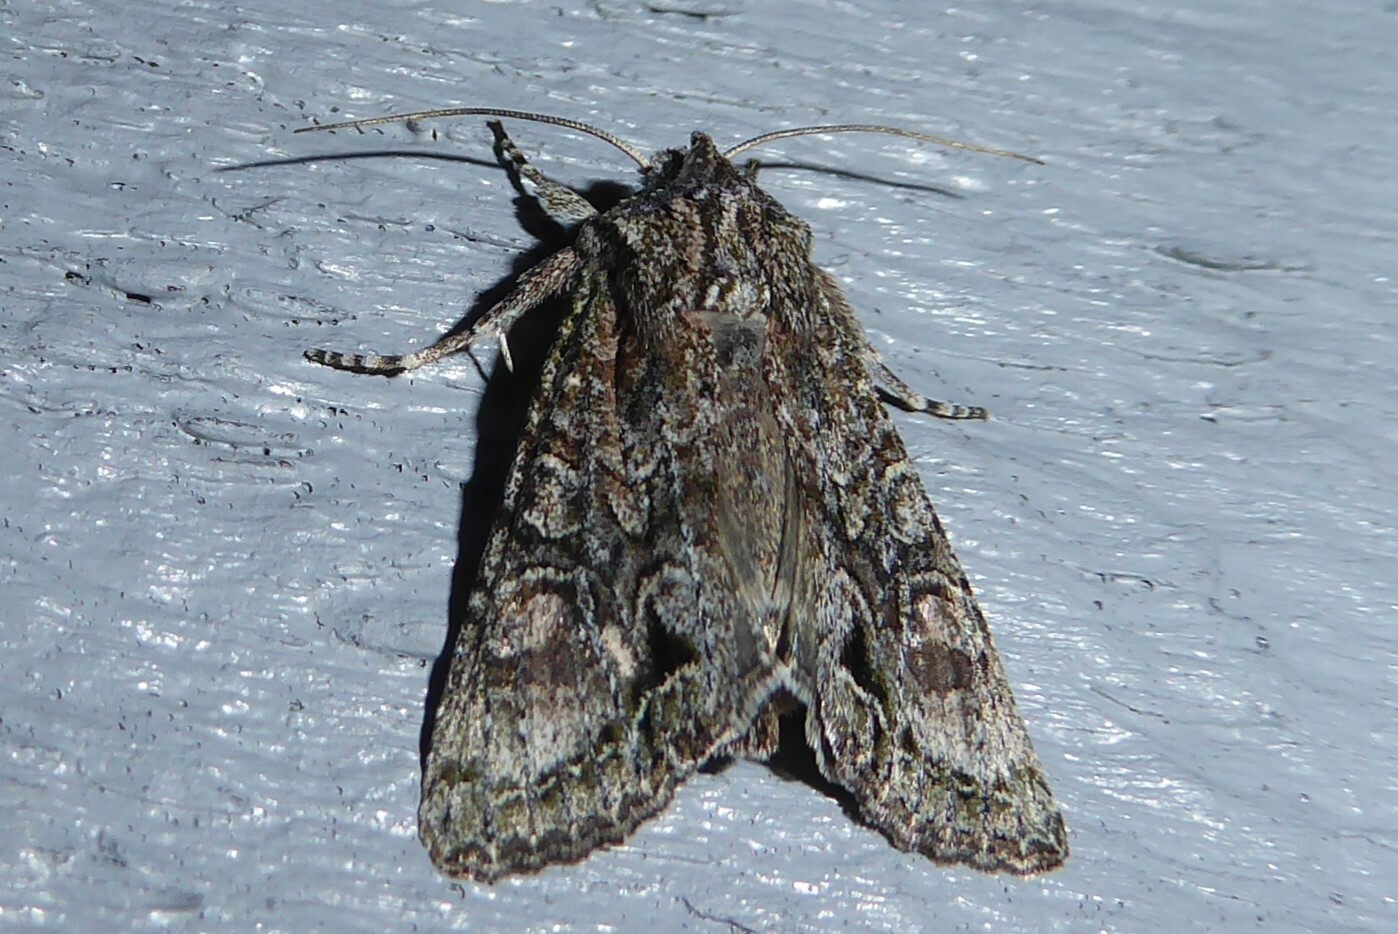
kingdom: Animalia
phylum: Arthropoda
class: Insecta
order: Lepidoptera
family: Noctuidae
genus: Ichneutica
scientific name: Ichneutica mutans
